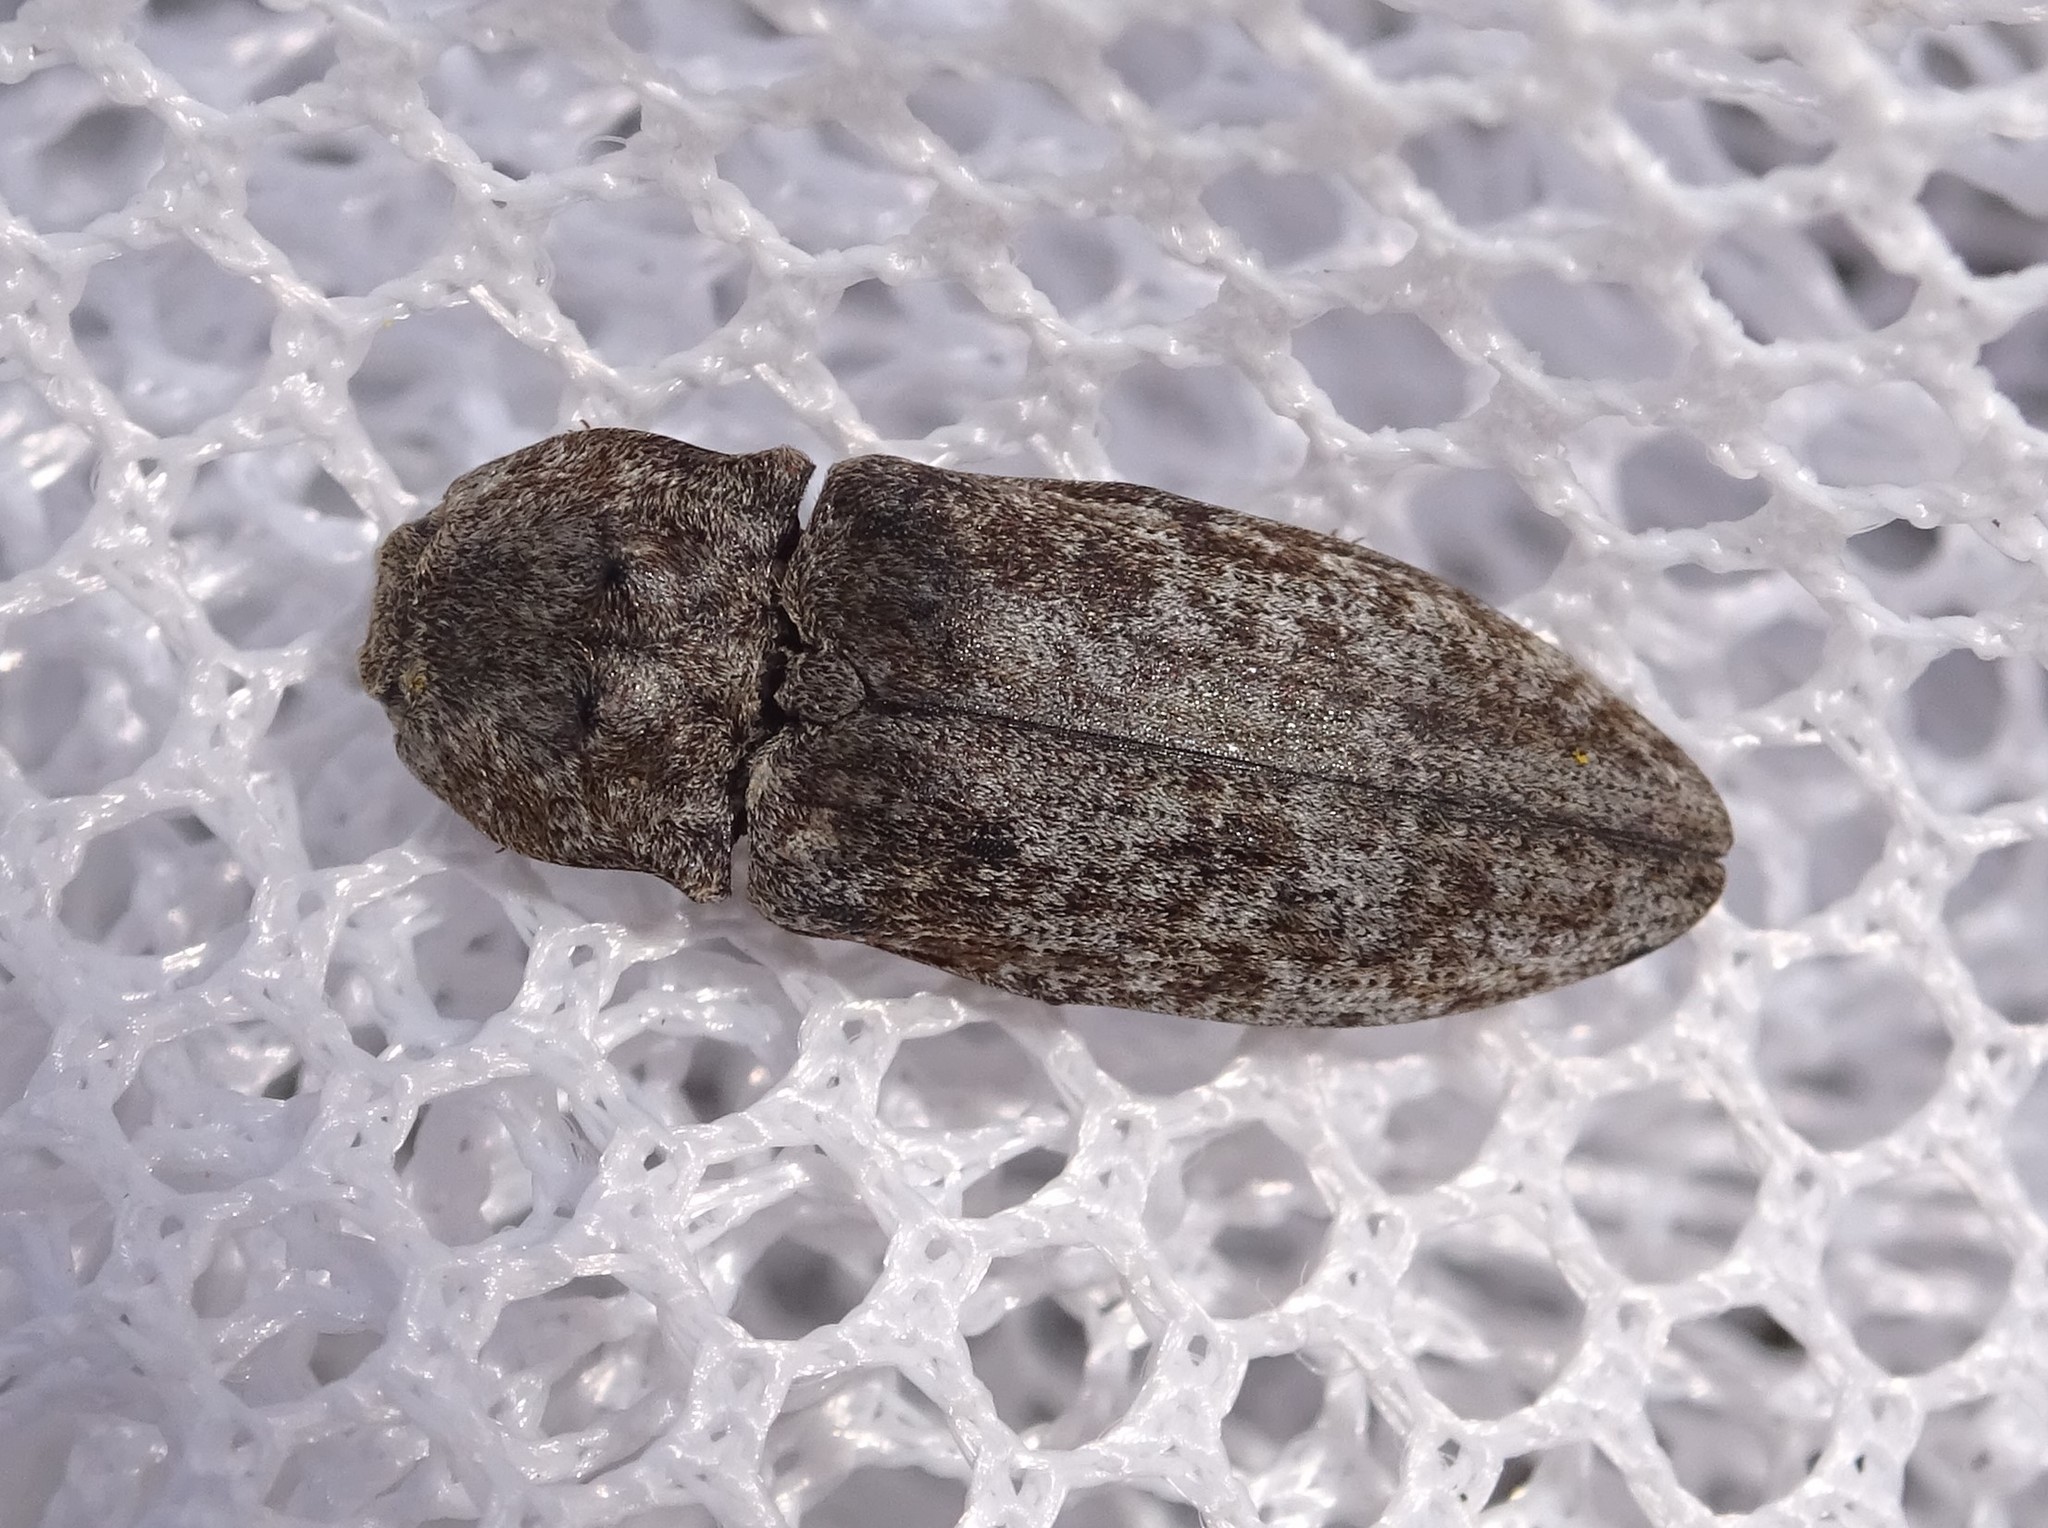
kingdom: Animalia
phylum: Arthropoda
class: Insecta
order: Coleoptera
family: Elateridae
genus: Agrypnus
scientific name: Agrypnus murinus
